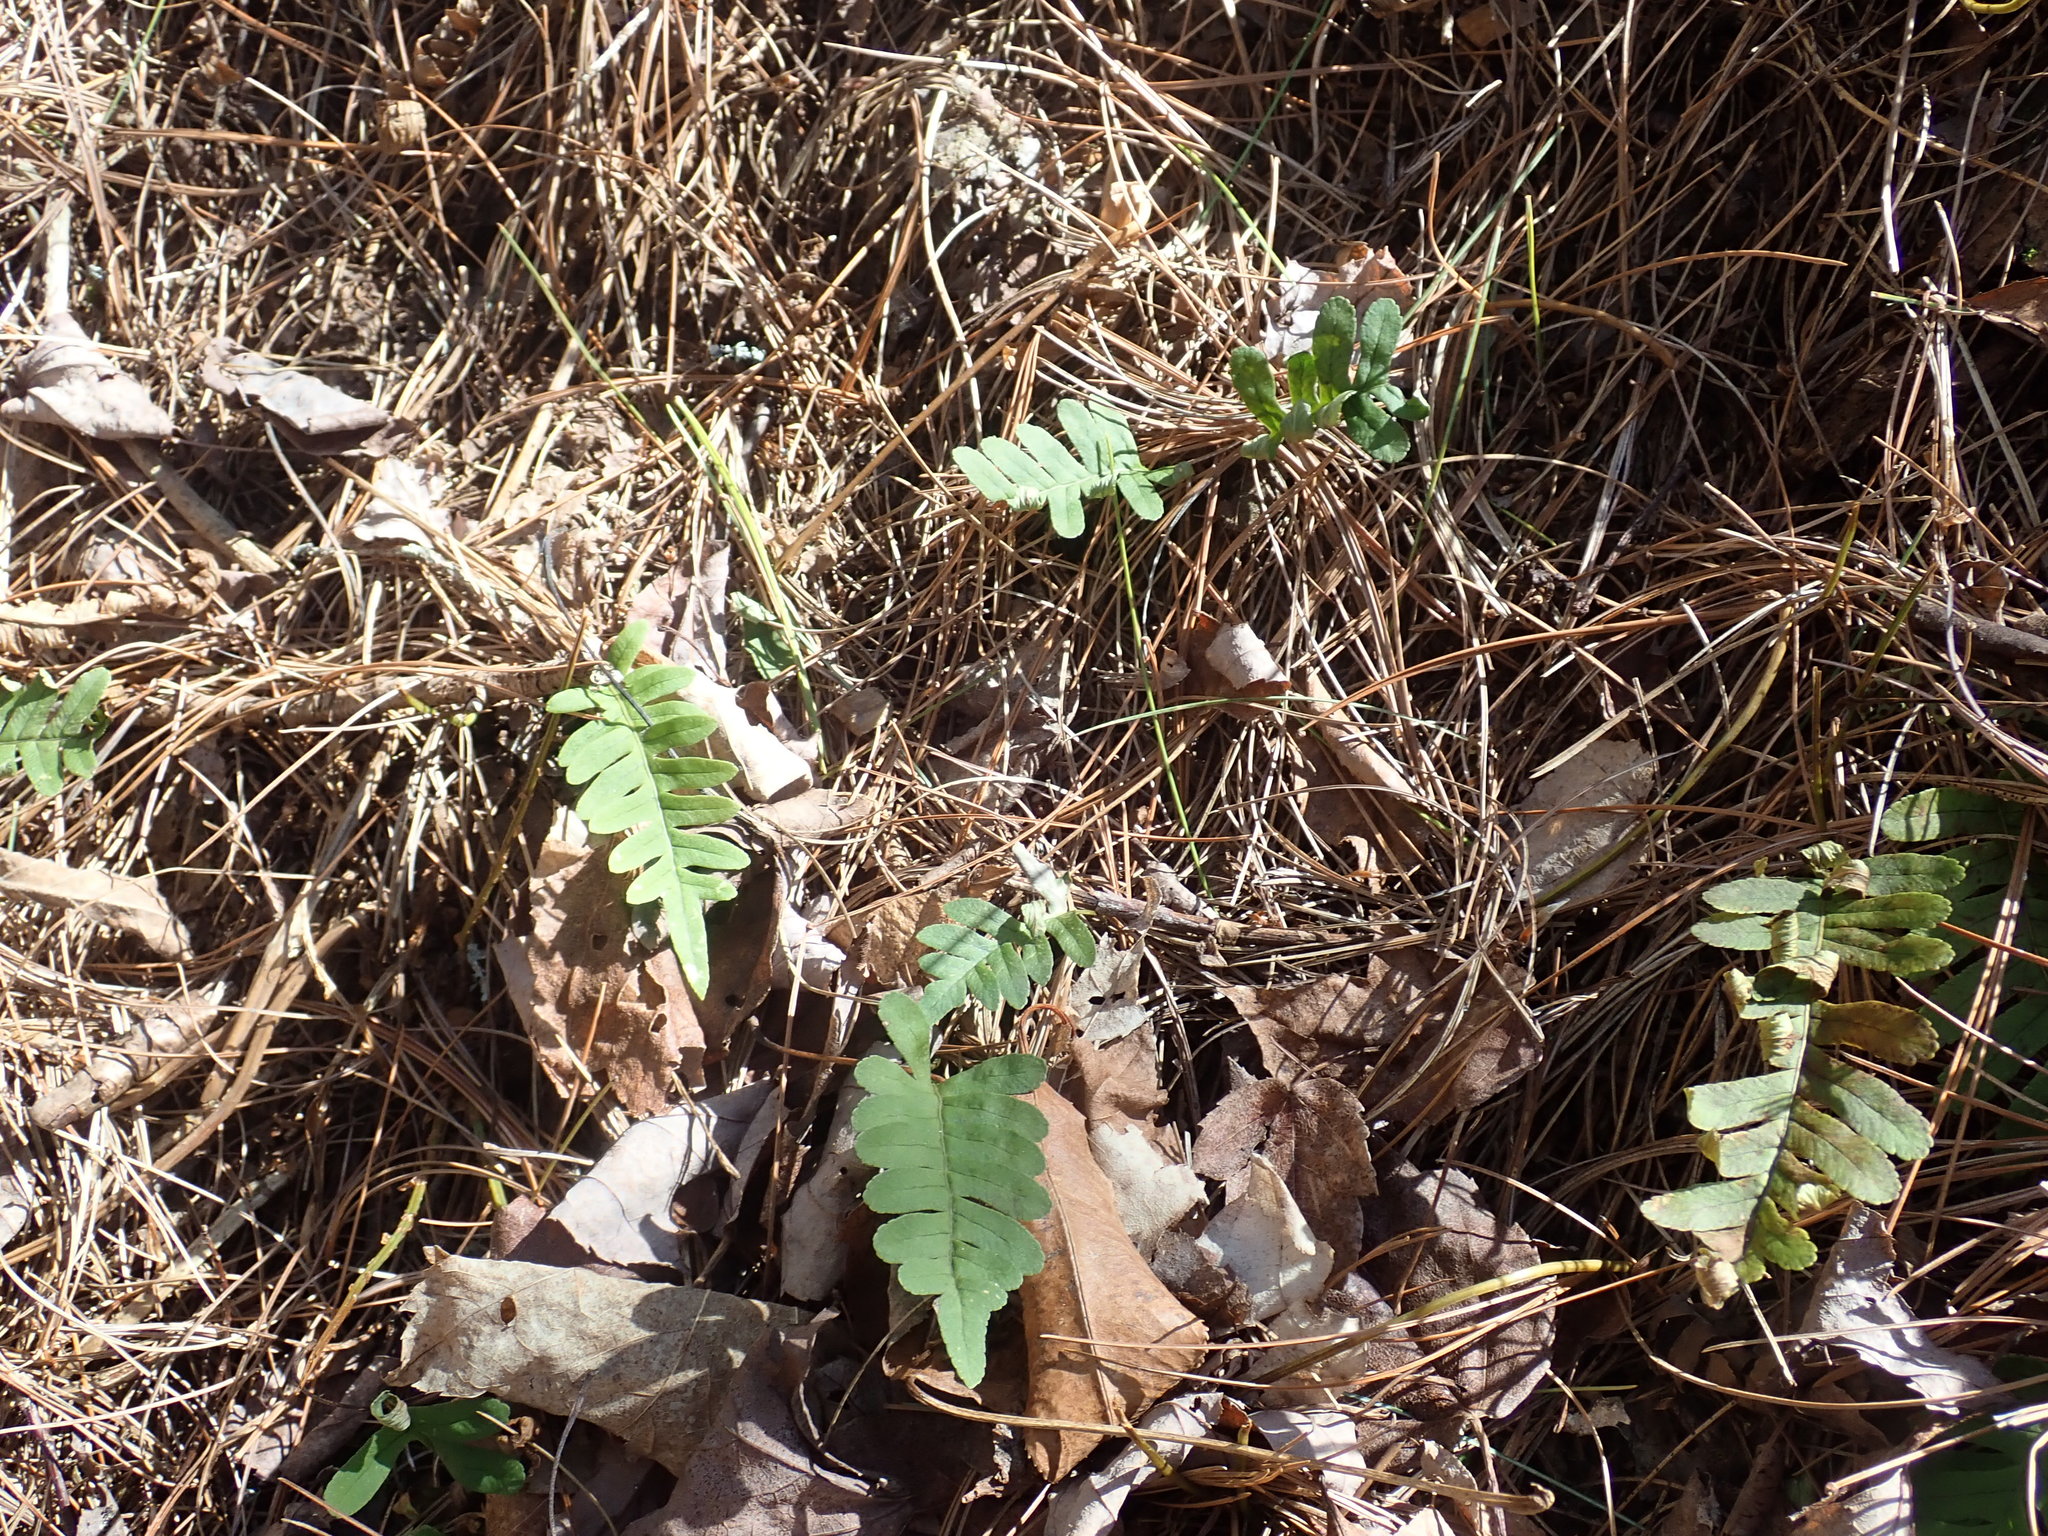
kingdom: Plantae
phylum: Tracheophyta
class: Polypodiopsida
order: Polypodiales
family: Polypodiaceae
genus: Polypodium
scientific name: Polypodium
